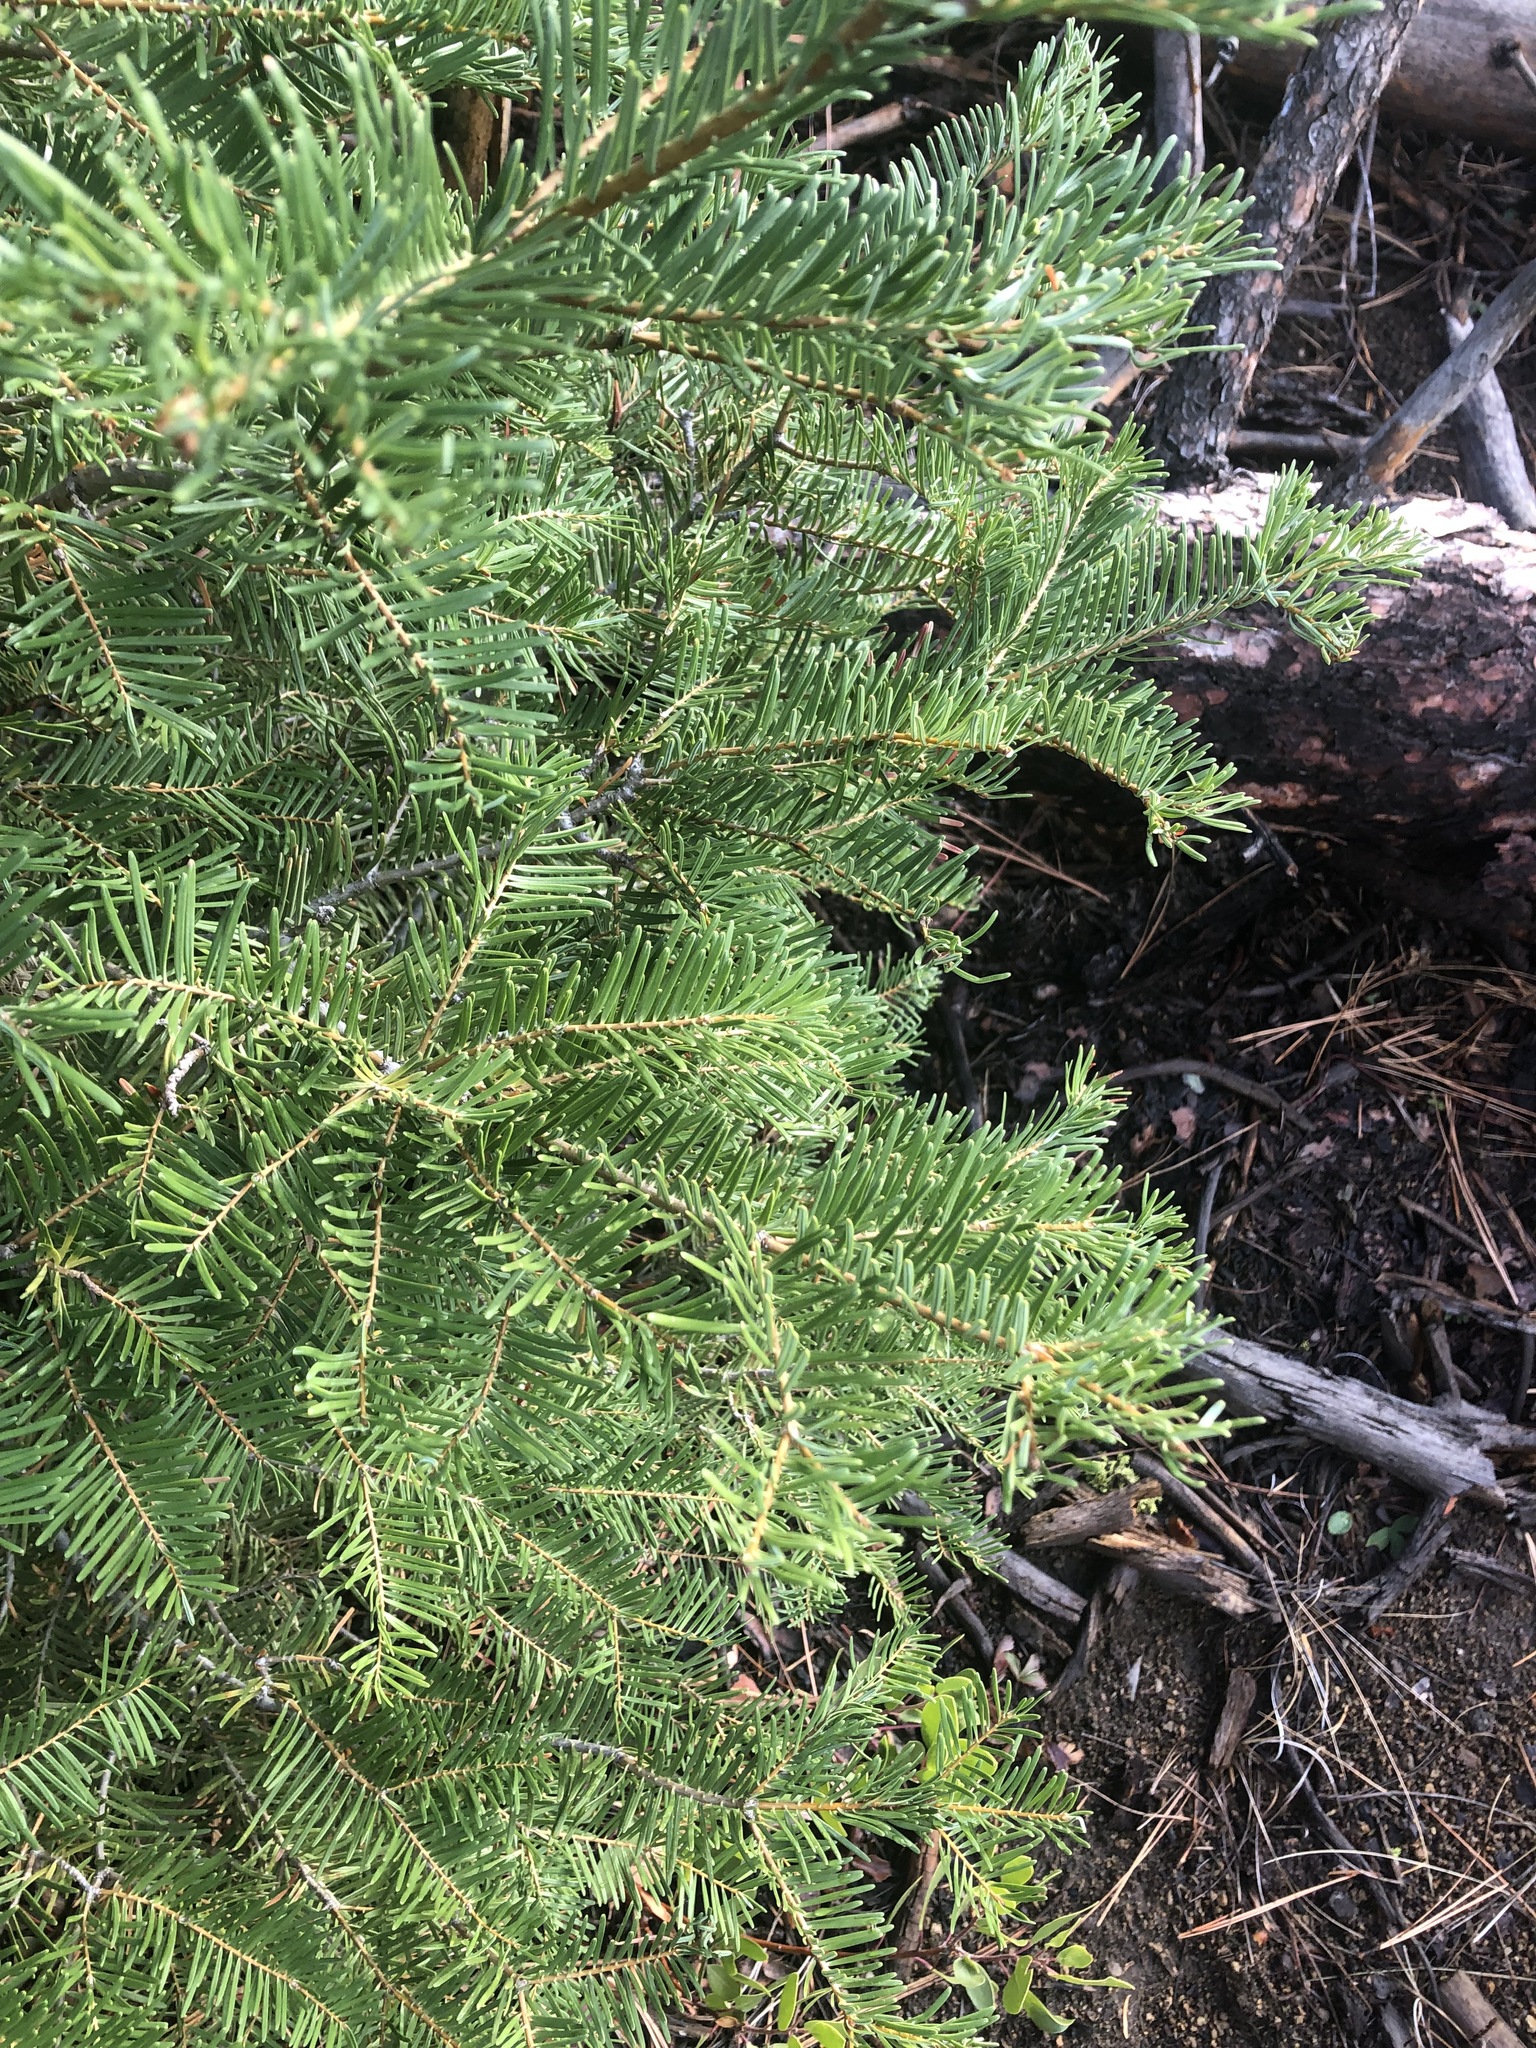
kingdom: Plantae
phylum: Tracheophyta
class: Pinopsida
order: Pinales
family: Pinaceae
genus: Abies
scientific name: Abies concolor
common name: Colorado fir
